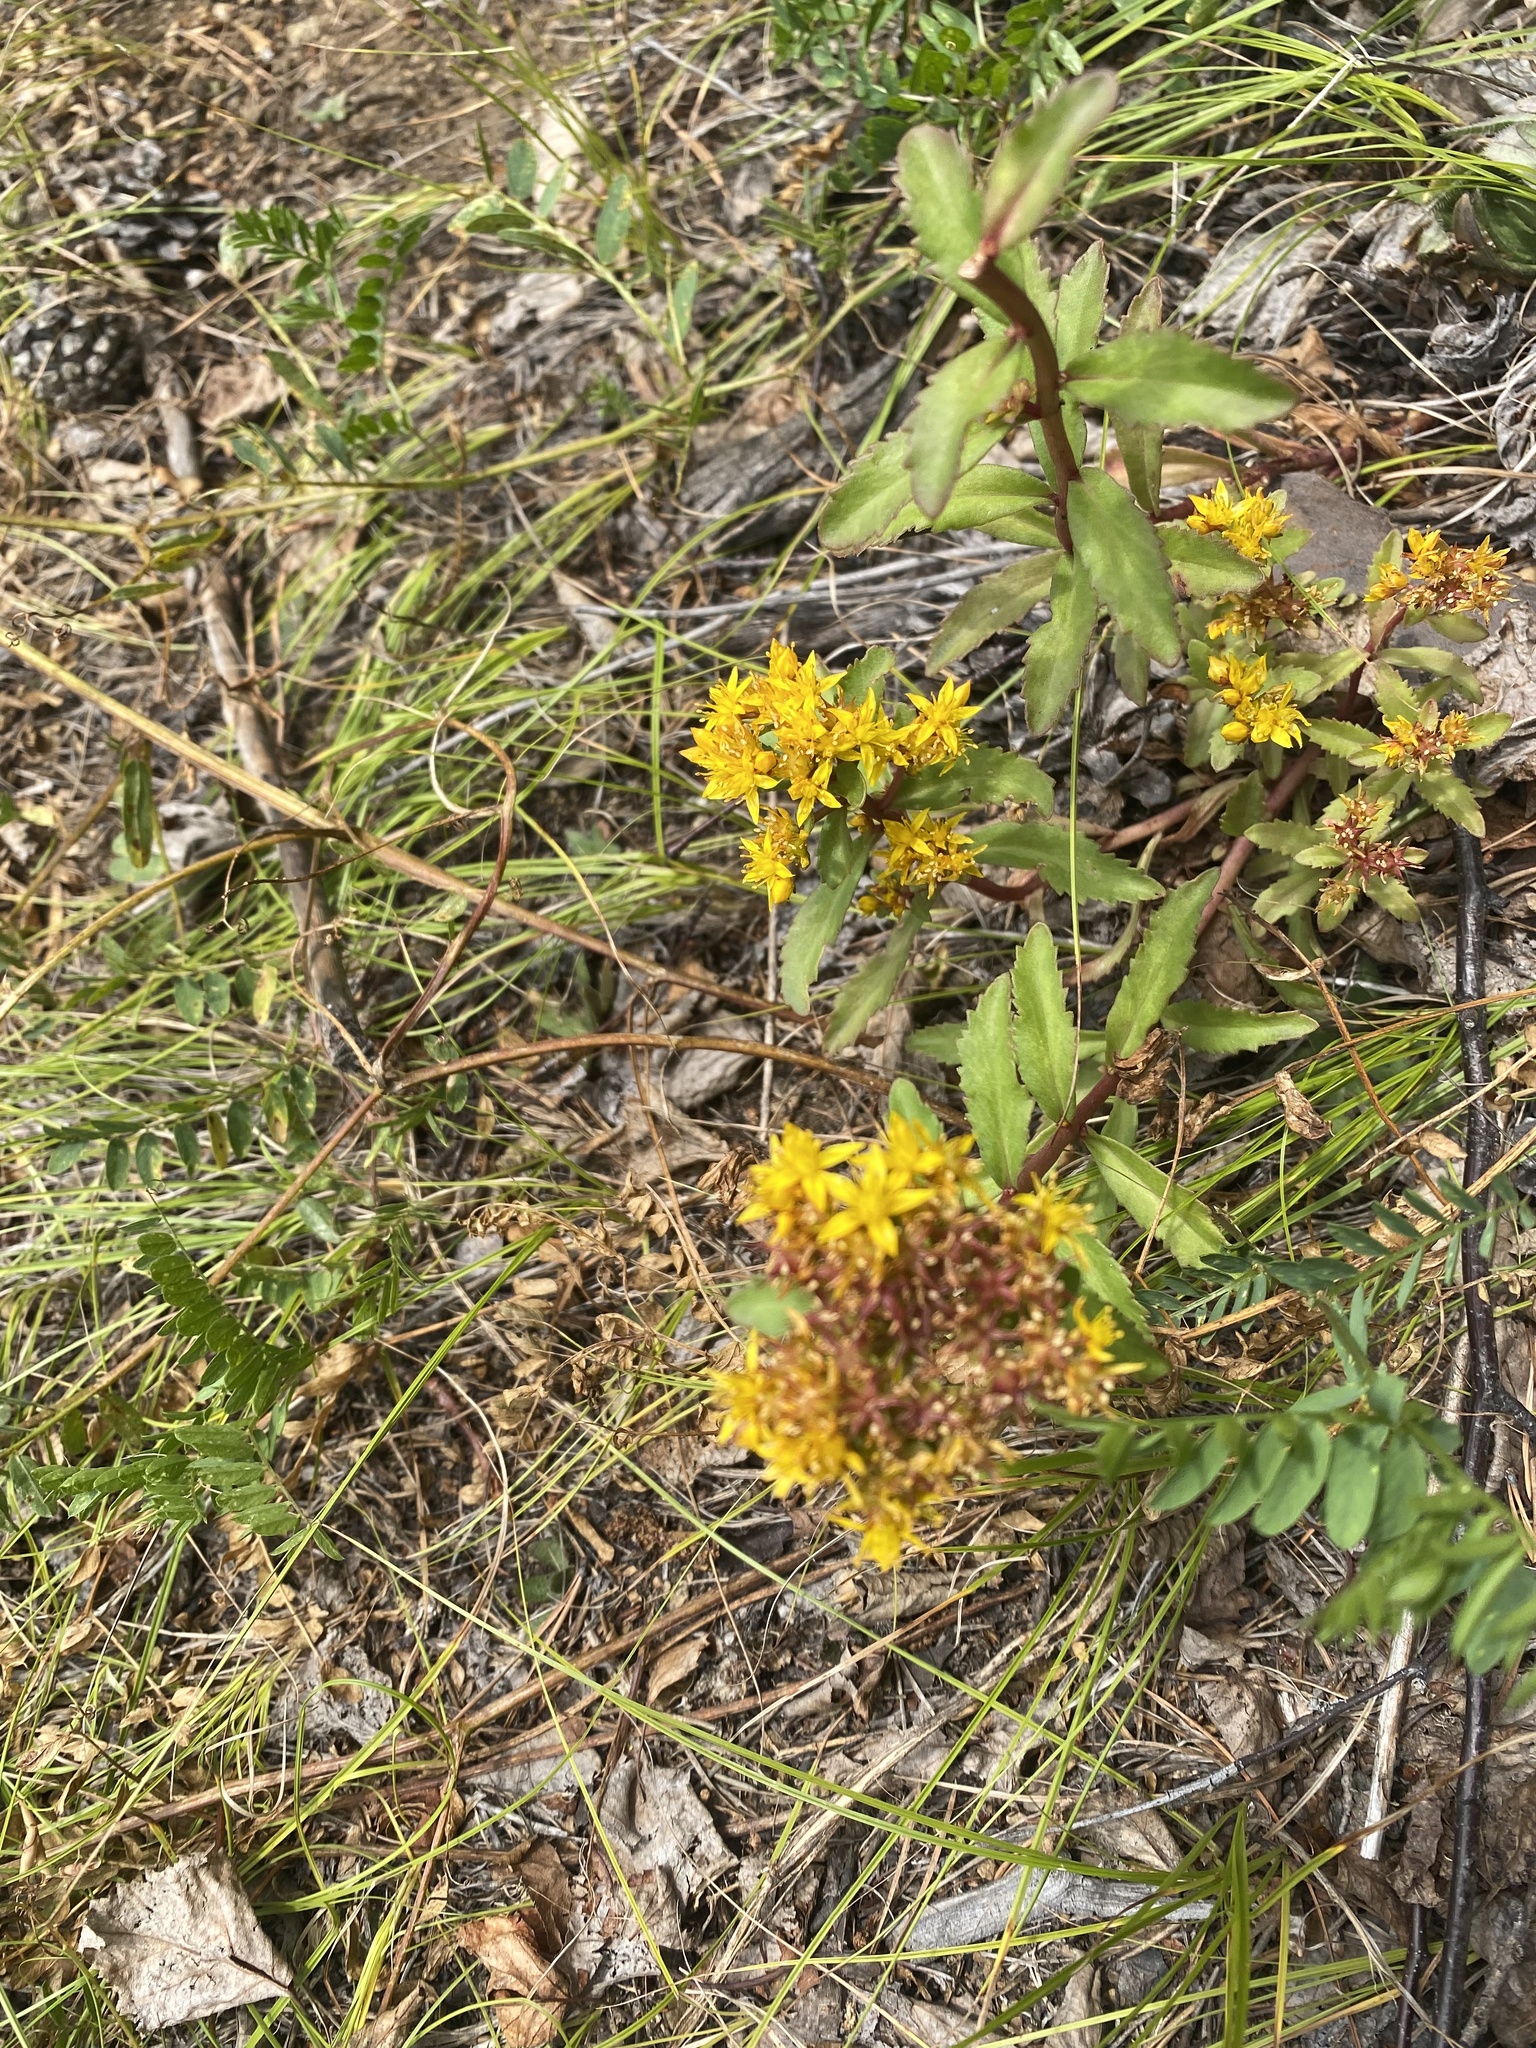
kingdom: Plantae
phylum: Tracheophyta
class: Magnoliopsida
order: Saxifragales
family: Crassulaceae
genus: Phedimus
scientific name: Phedimus aizoon
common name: Orpin aizoon
